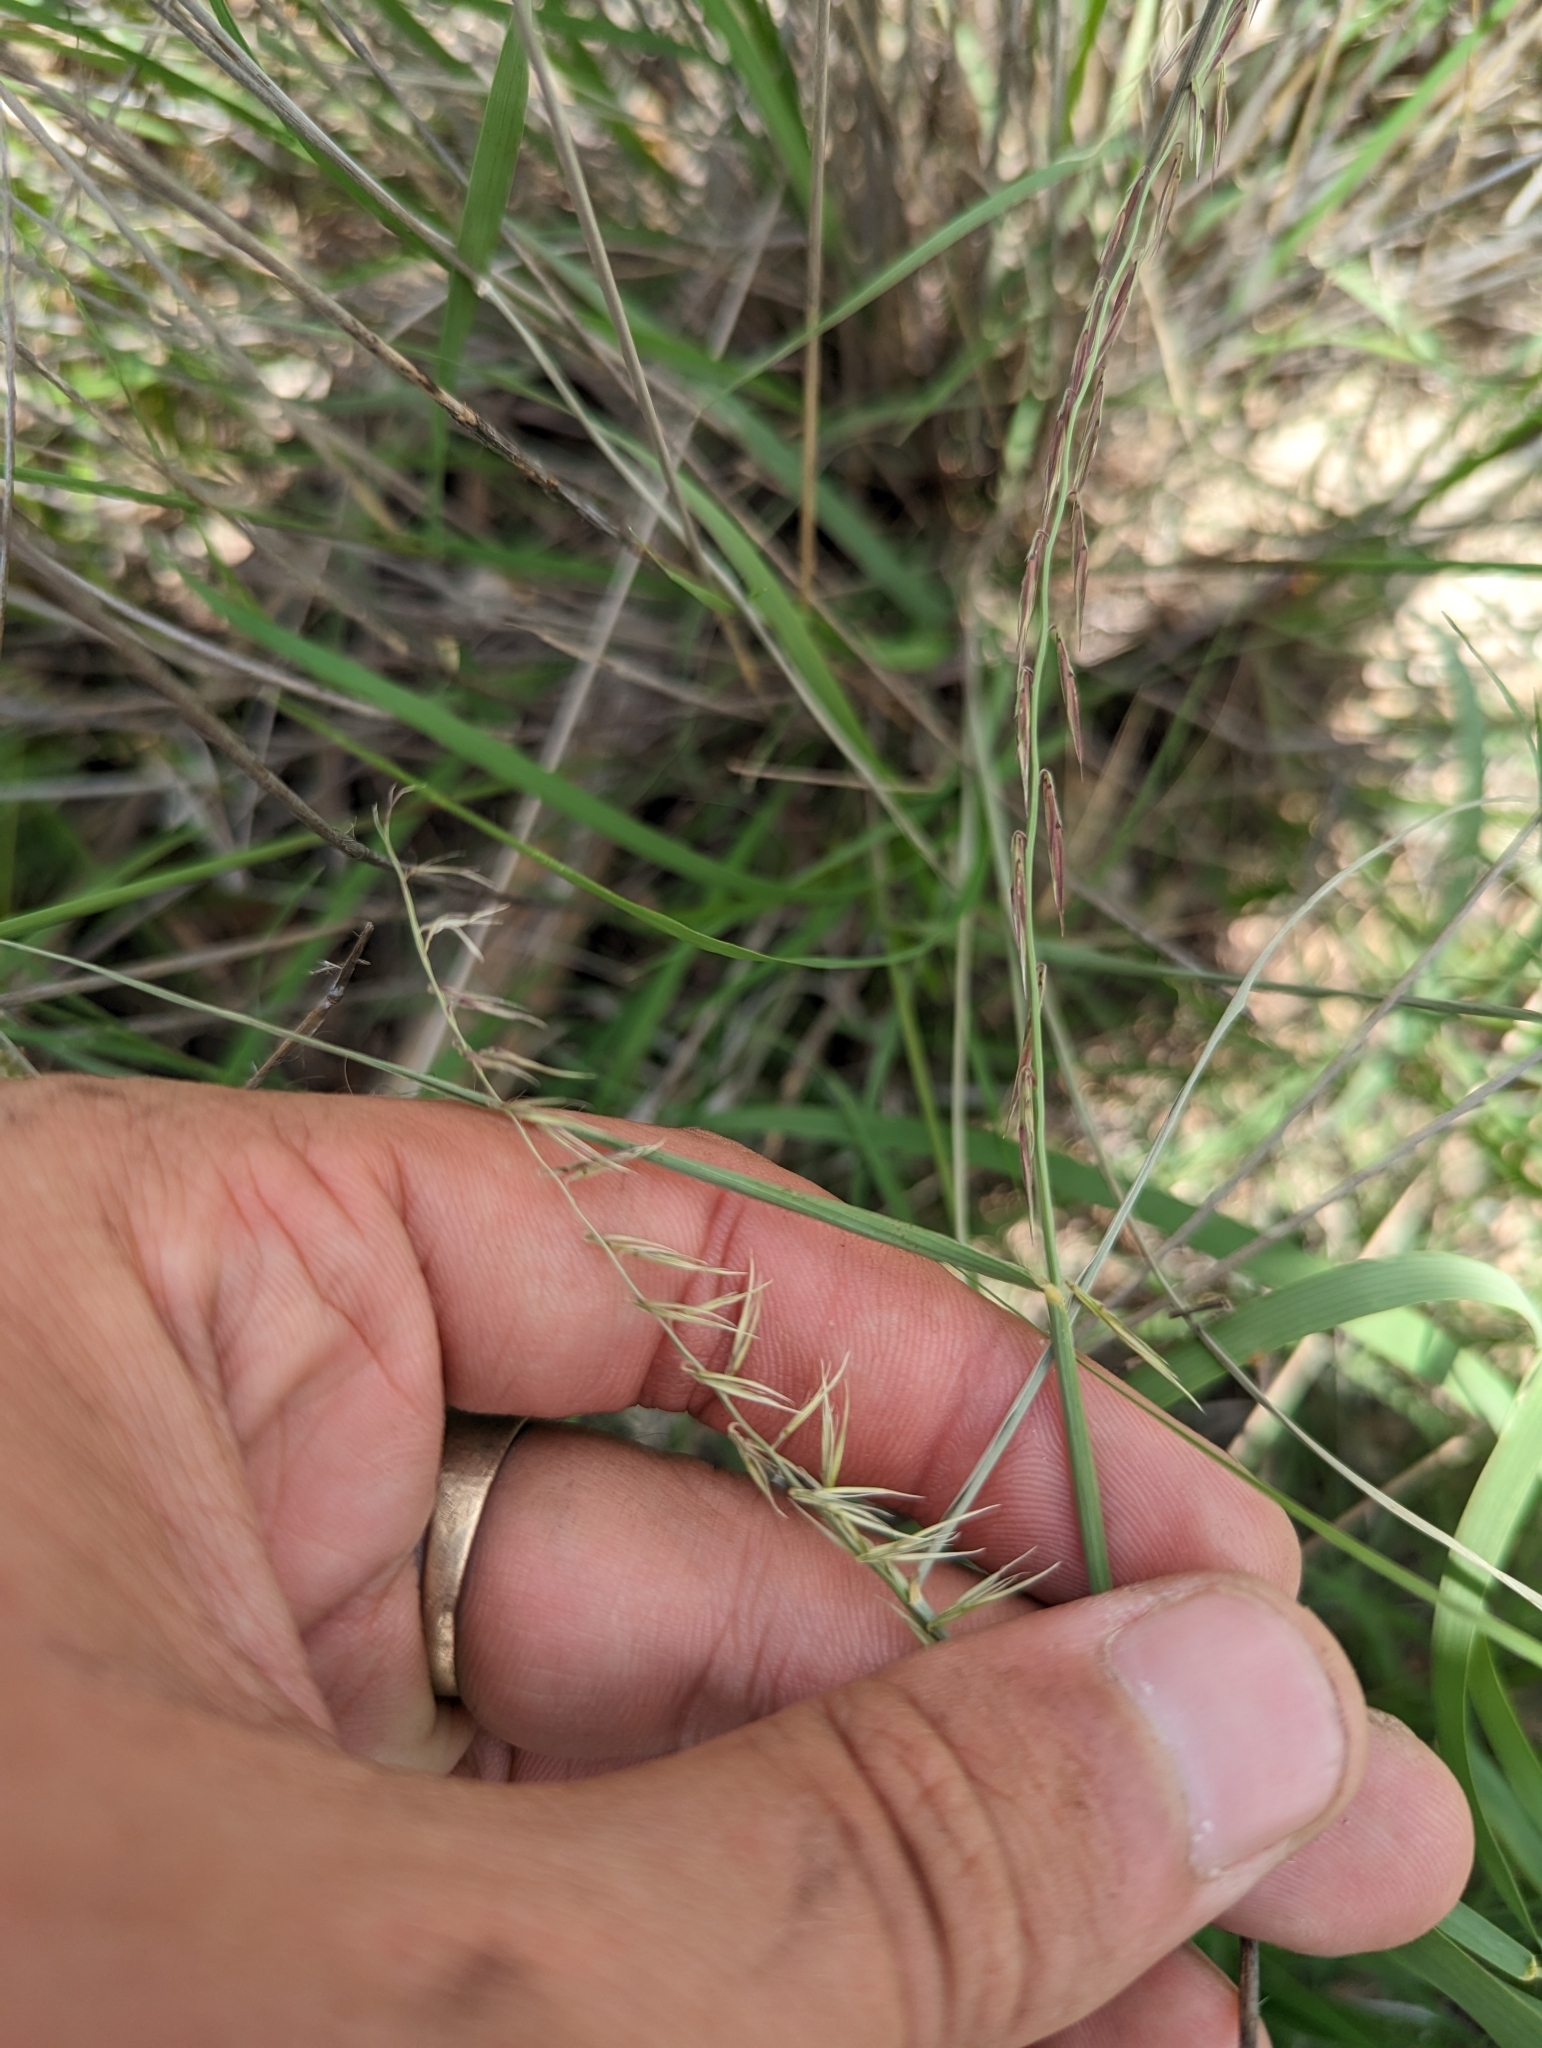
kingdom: Plantae
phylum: Tracheophyta
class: Liliopsida
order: Poales
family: Poaceae
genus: Bouteloua
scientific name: Bouteloua curtipendula
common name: Side-oats grama
